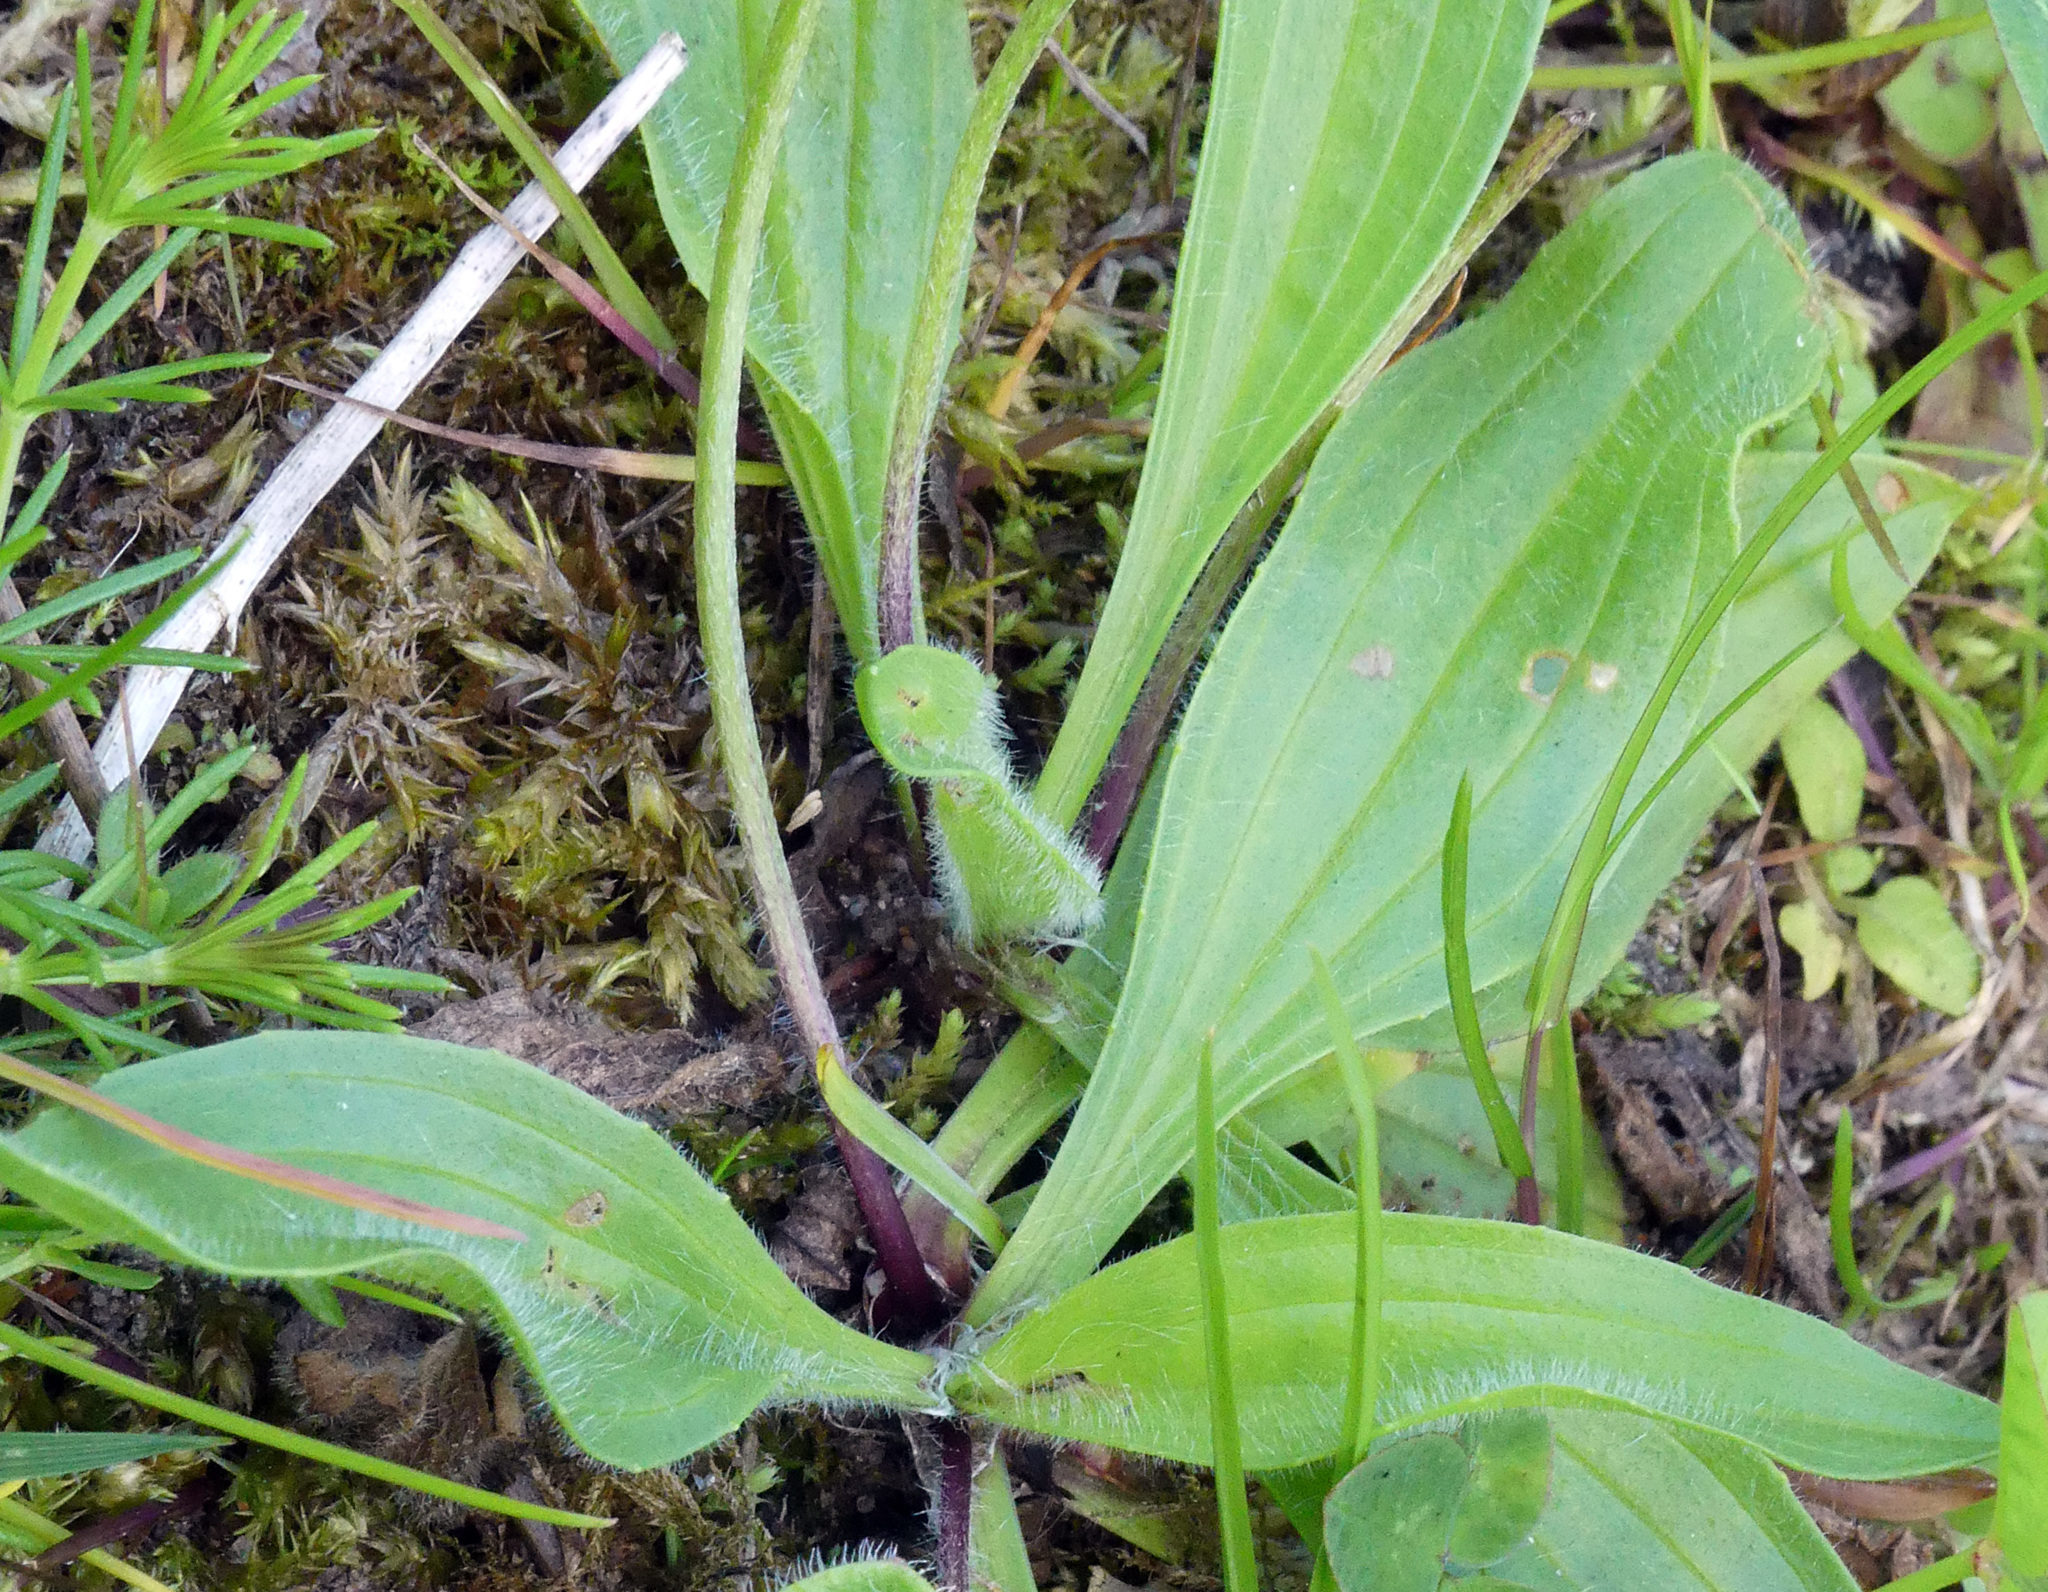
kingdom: Plantae
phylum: Tracheophyta
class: Magnoliopsida
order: Lamiales
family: Plantaginaceae
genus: Plantago
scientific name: Plantago lanceolata
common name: Ribwort plantain
